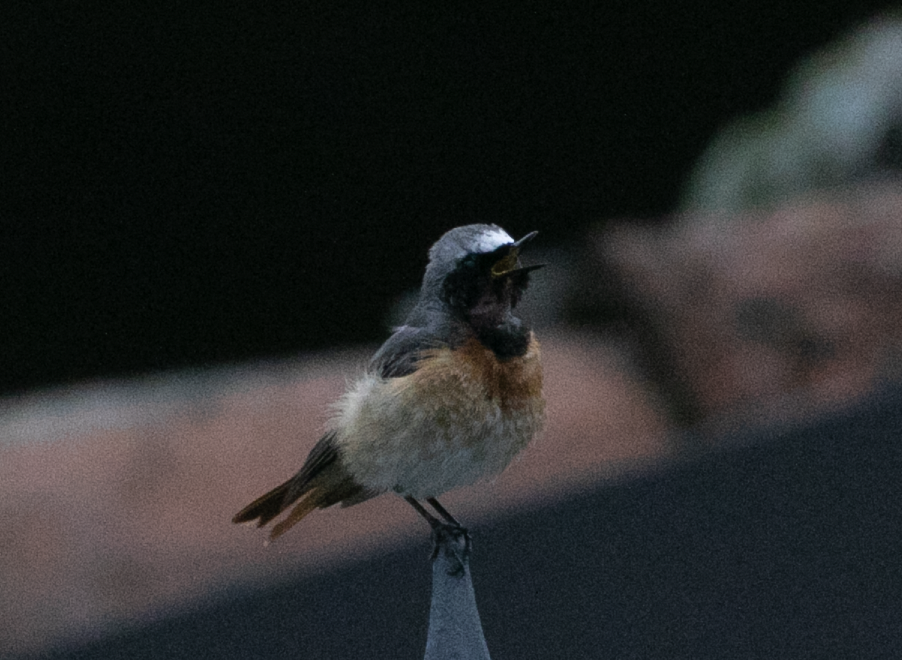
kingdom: Animalia
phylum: Chordata
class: Aves
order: Passeriformes
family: Muscicapidae
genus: Phoenicurus
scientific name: Phoenicurus phoenicurus
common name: Common redstart
